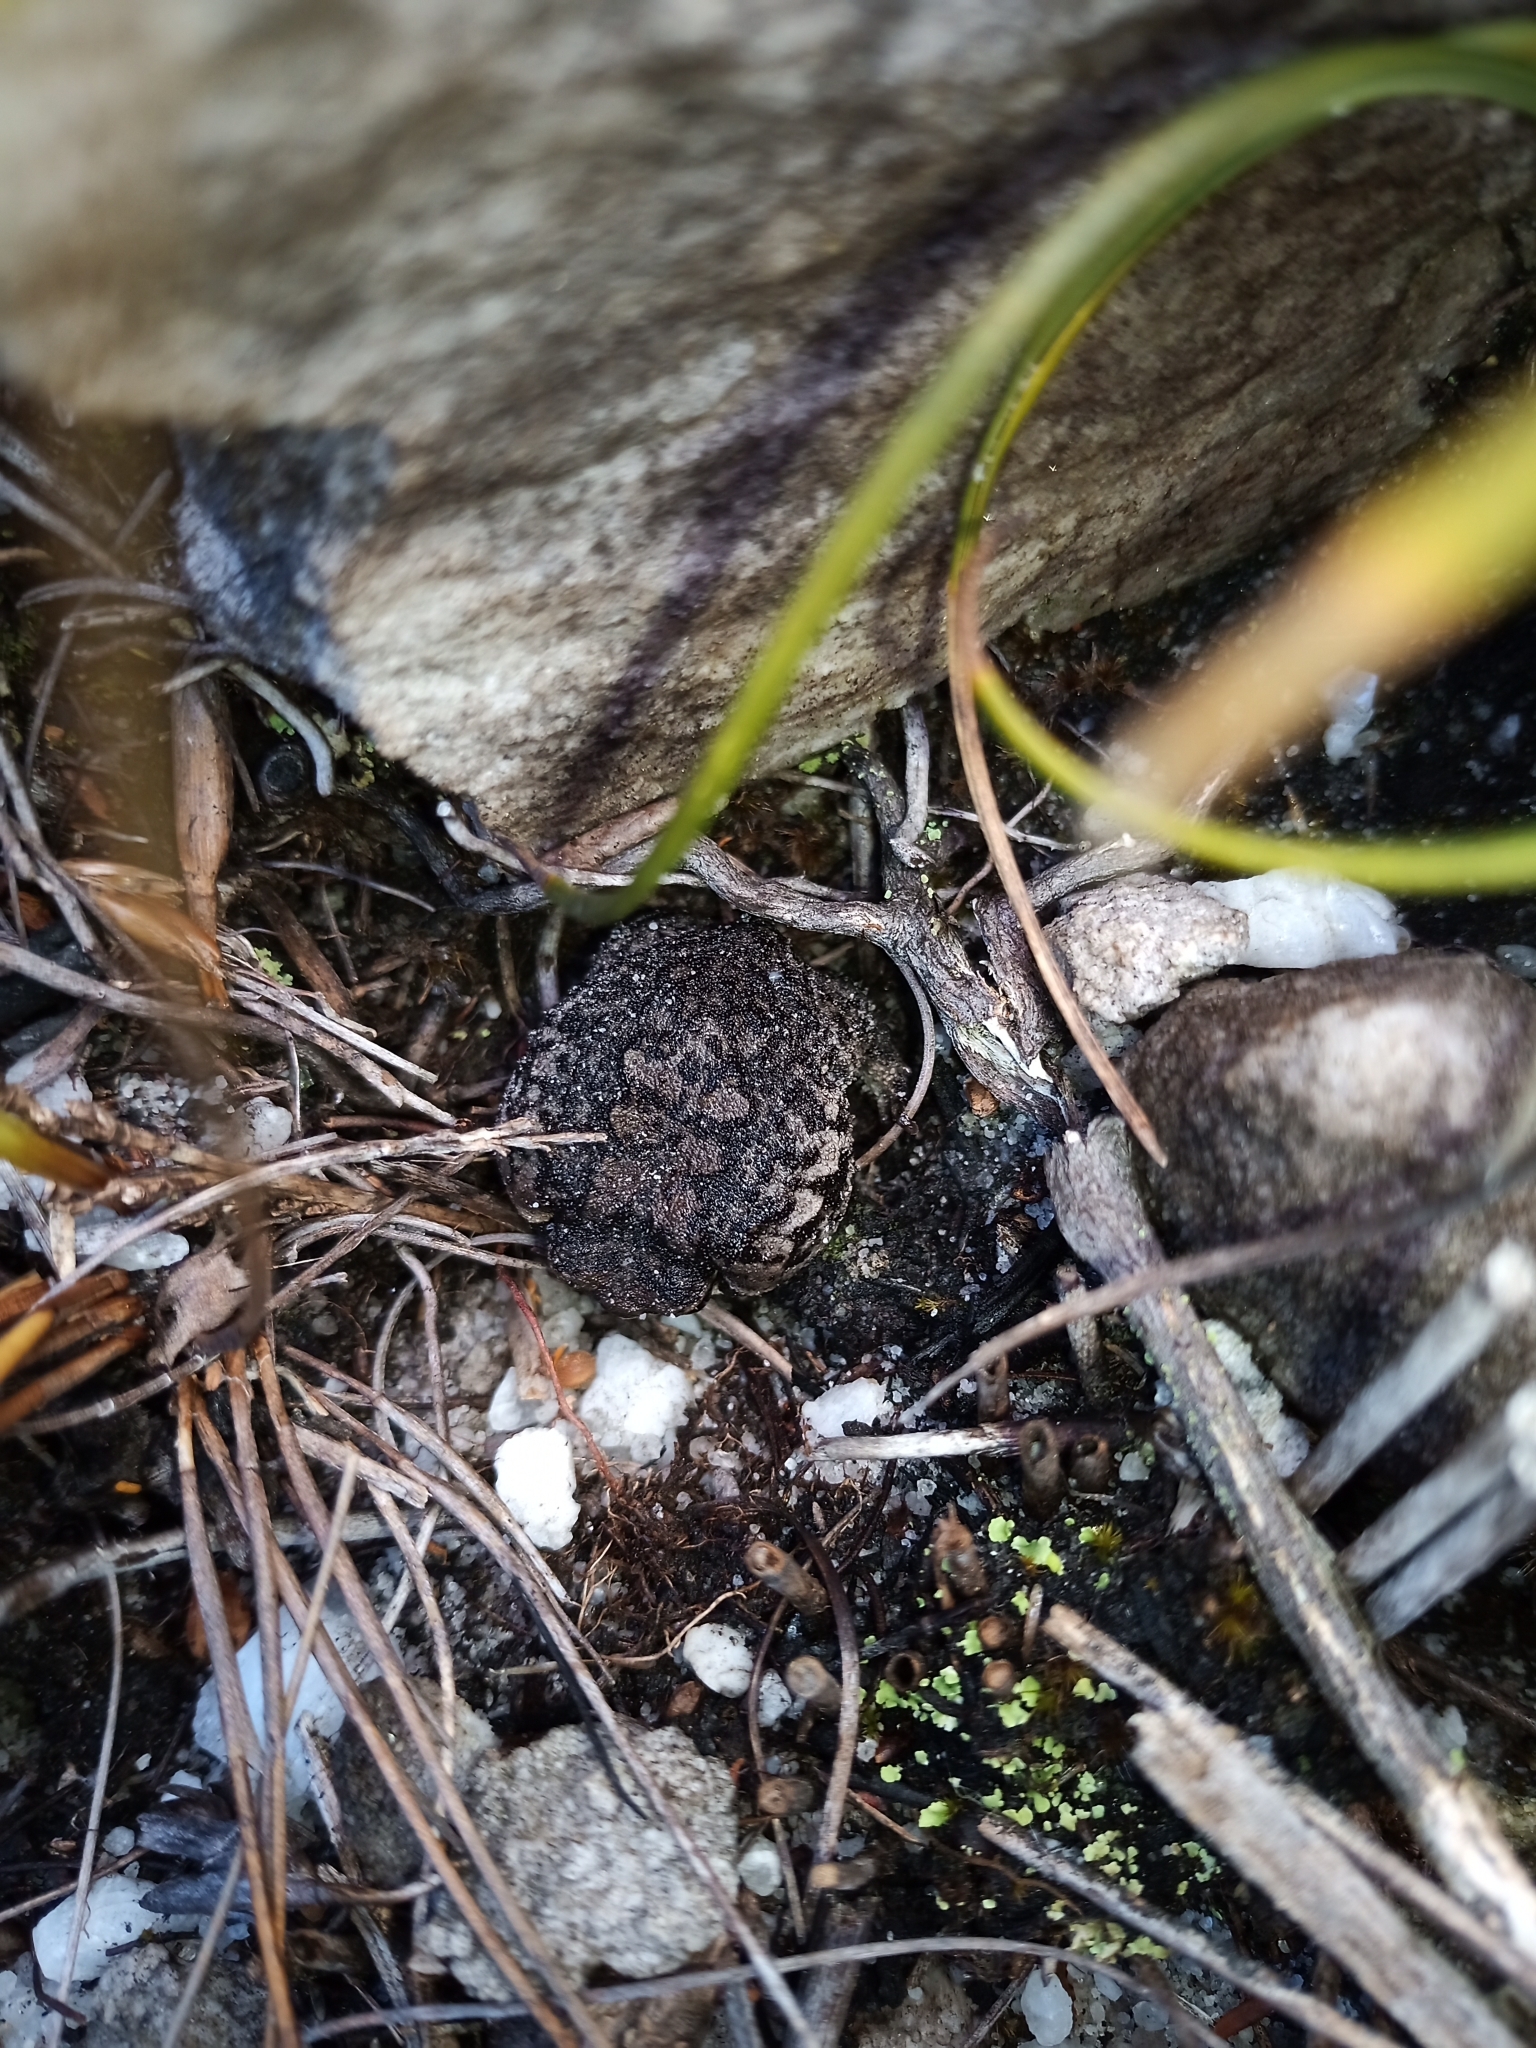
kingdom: Animalia
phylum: Chordata
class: Amphibia
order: Anura
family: Brevicipitidae
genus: Breviceps
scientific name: Breviceps montanus
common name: Mountain rain frog
